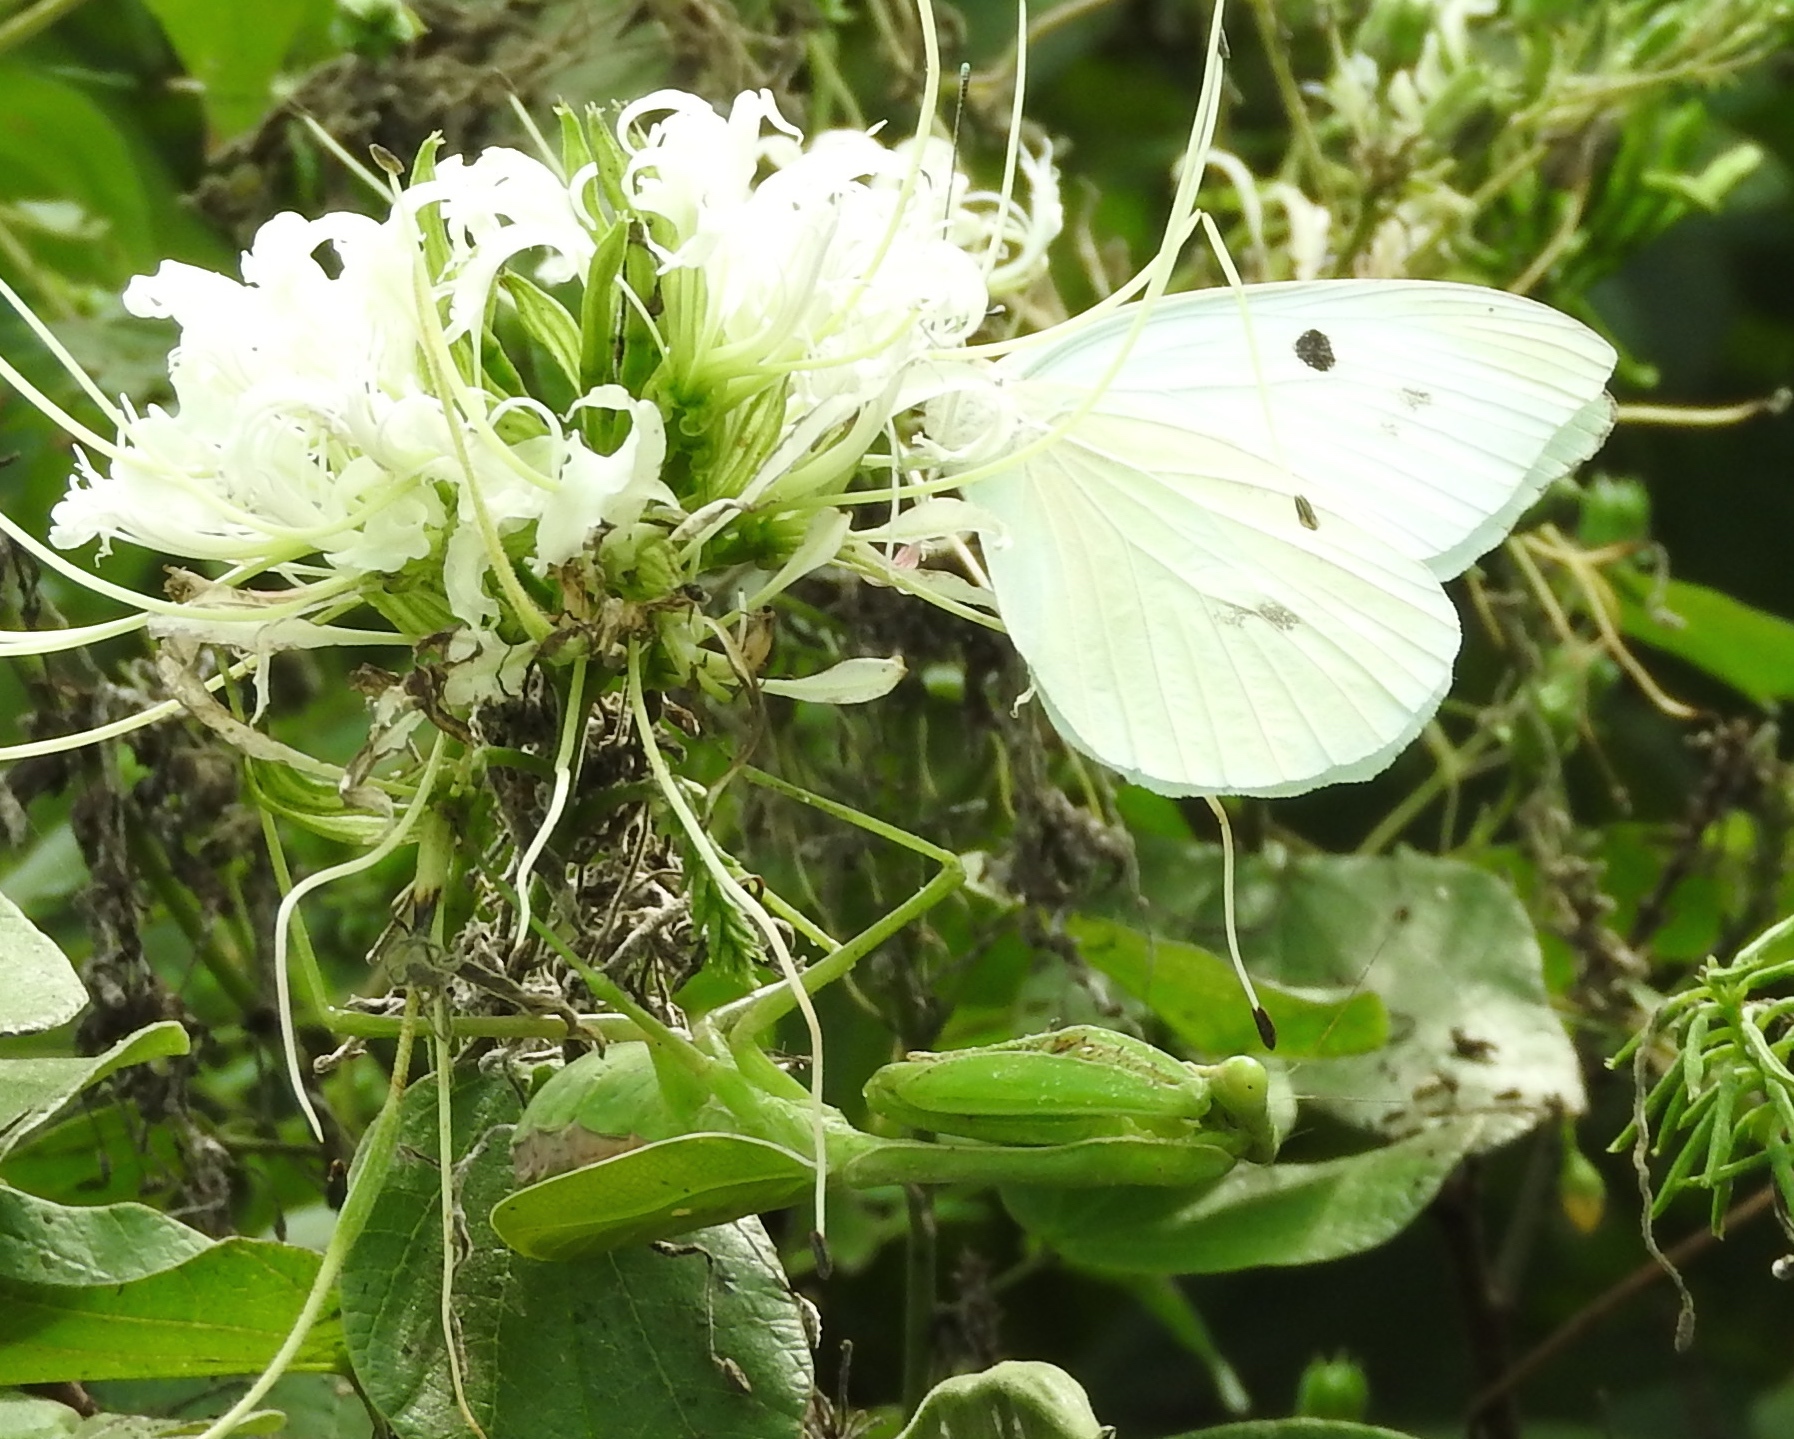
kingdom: Animalia
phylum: Arthropoda
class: Insecta
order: Mantodea
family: Mantidae
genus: Stagmomantis
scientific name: Stagmomantis limbata
